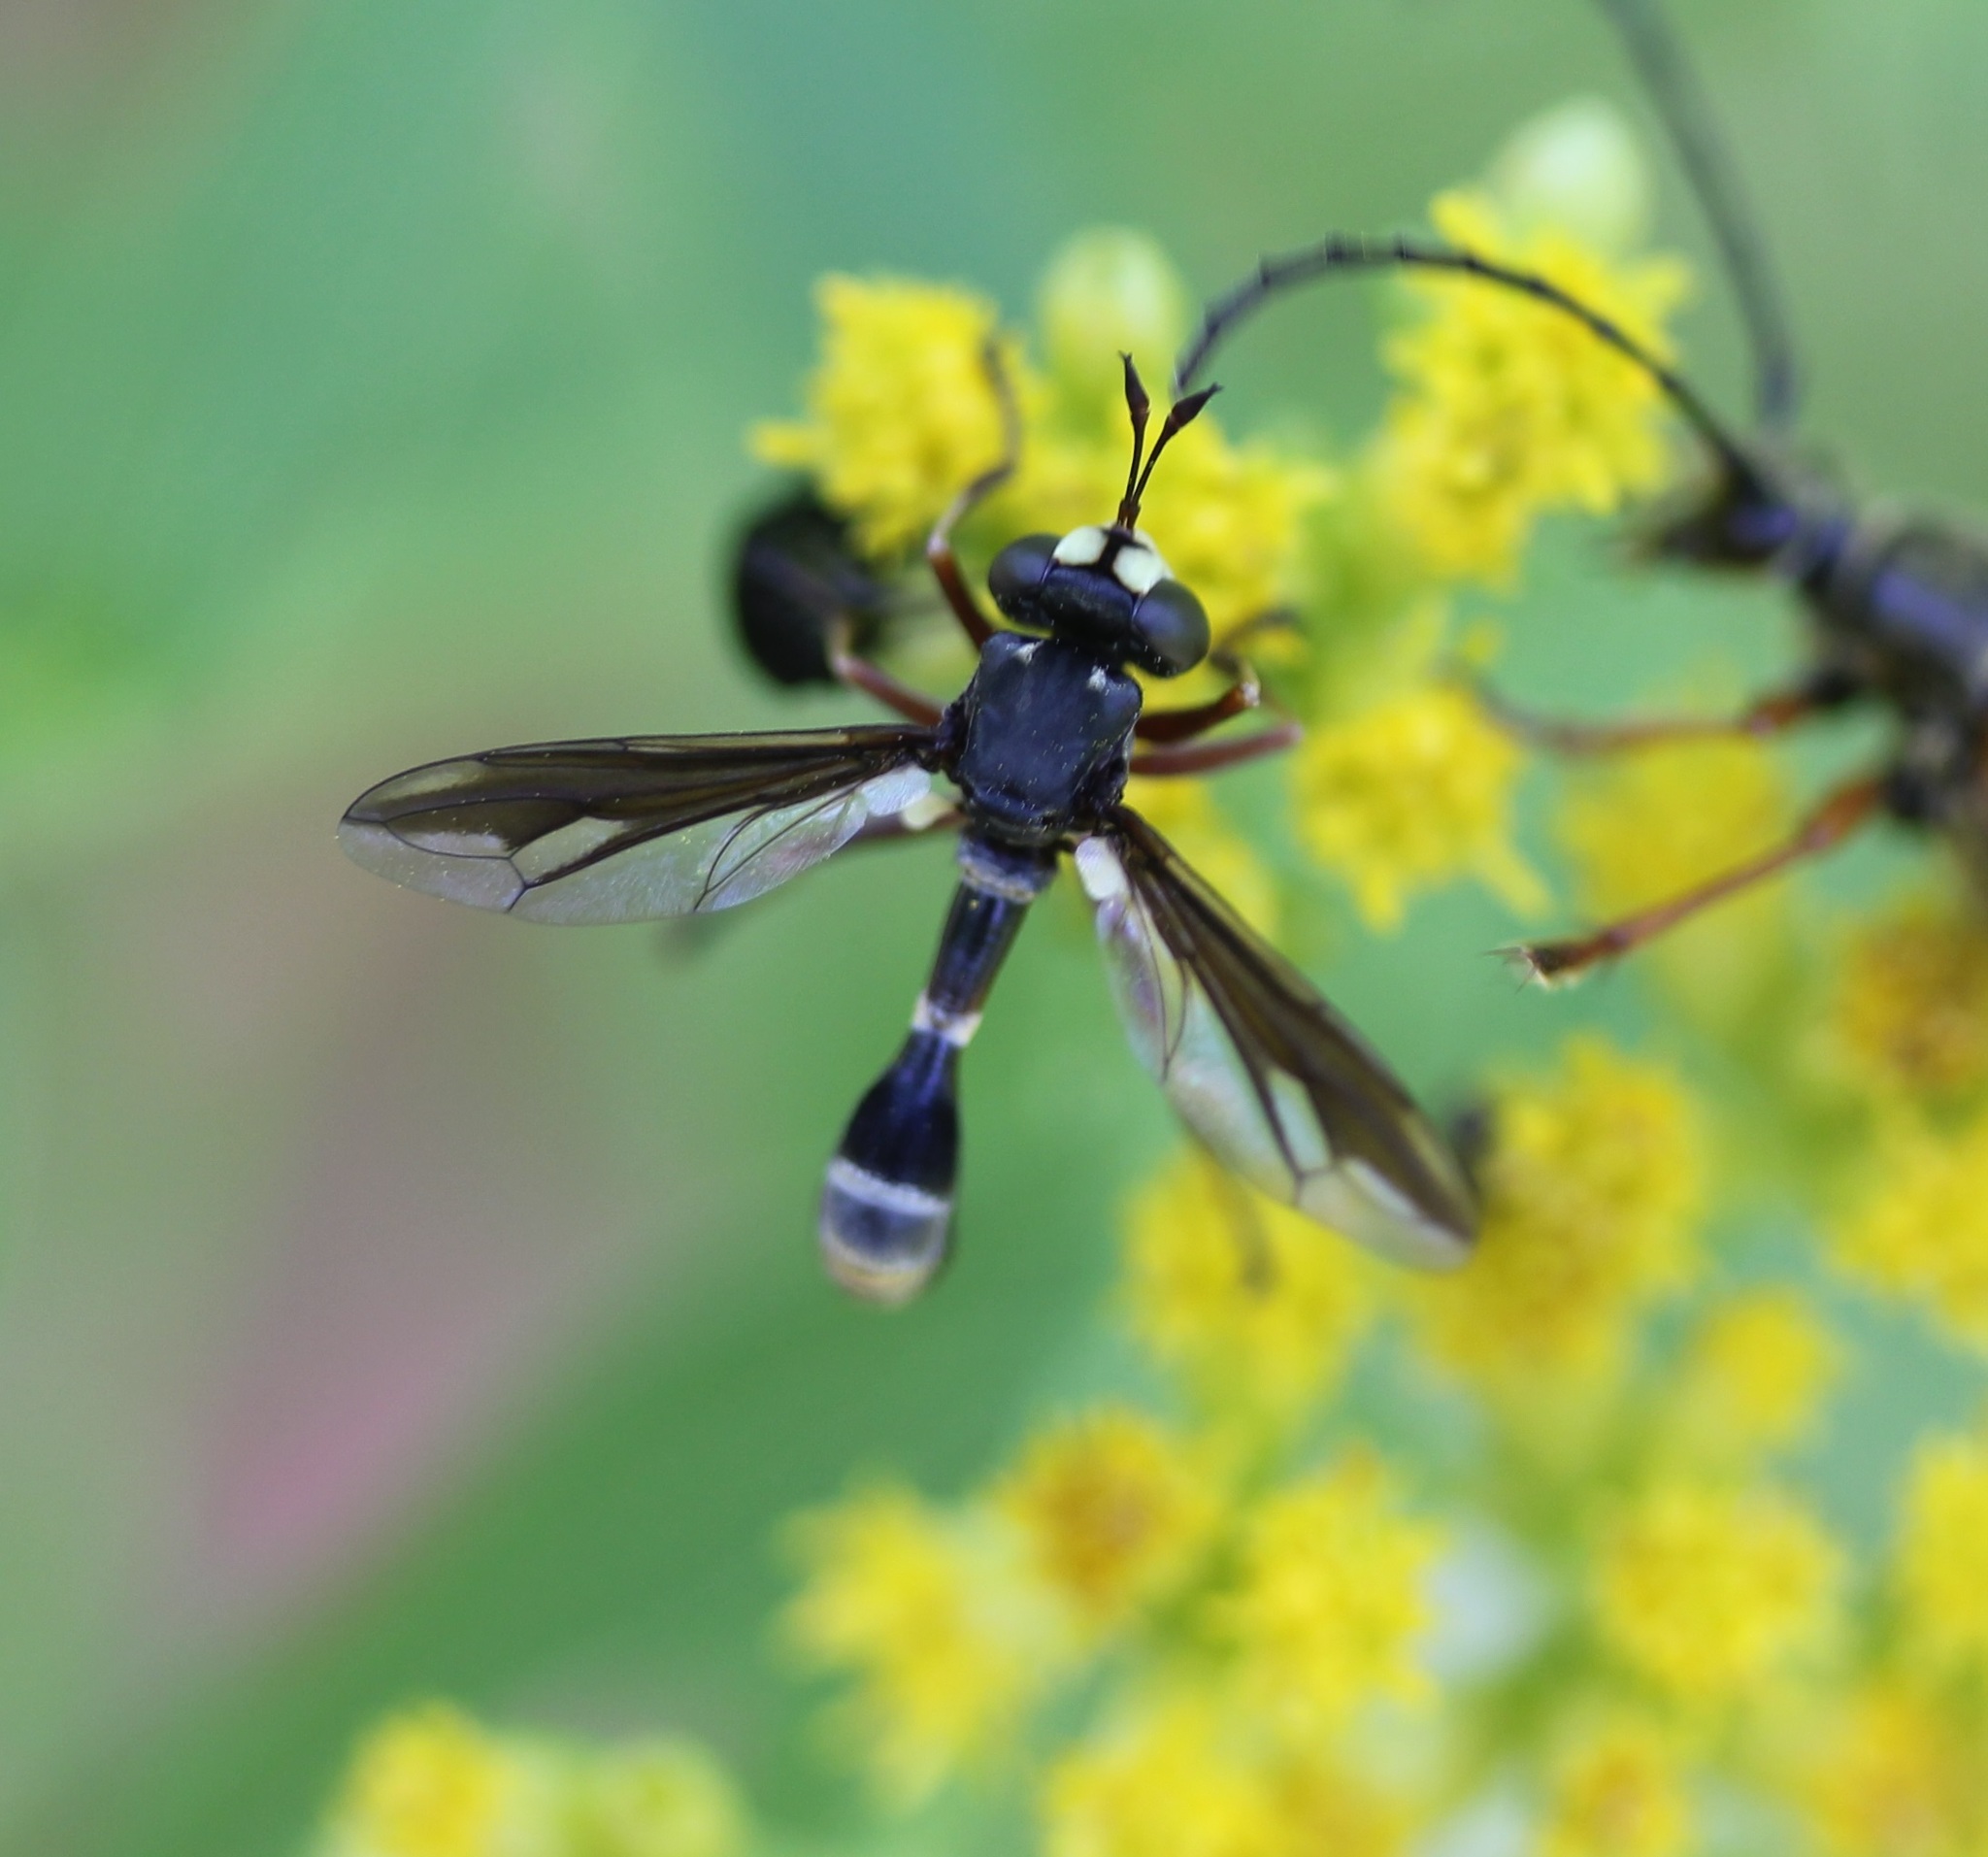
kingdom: Animalia
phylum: Arthropoda
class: Insecta
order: Diptera
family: Conopidae
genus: Physocephala
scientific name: Physocephala furcillata
